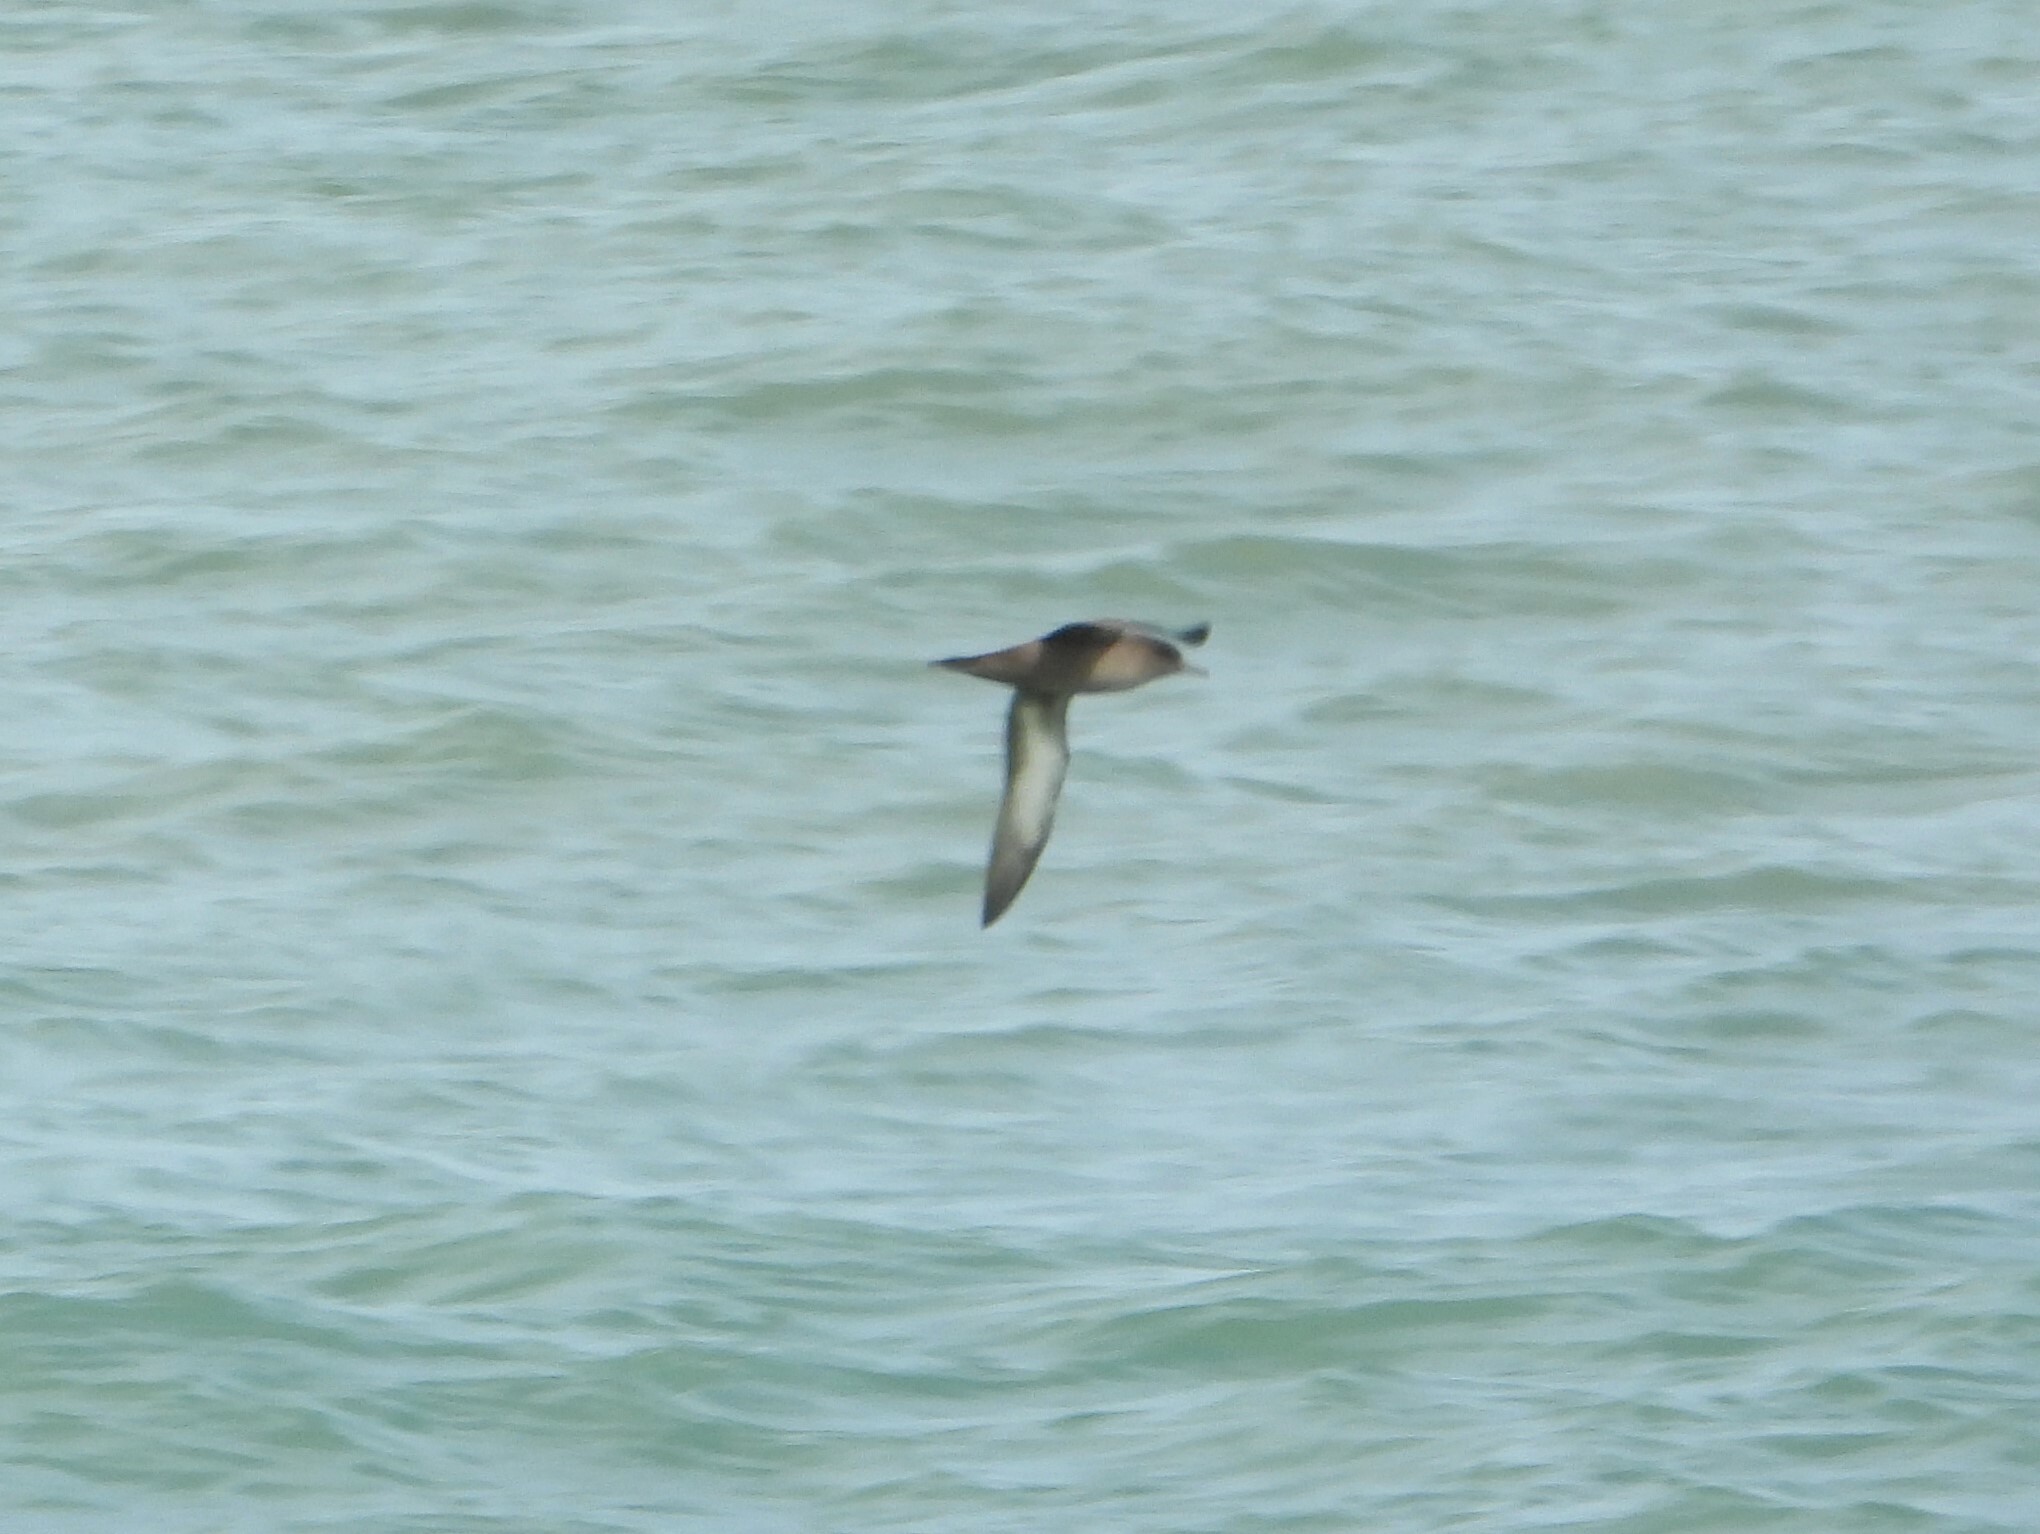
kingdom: Animalia
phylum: Chordata
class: Aves
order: Procellariiformes
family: Procellariidae
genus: Puffinus
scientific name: Puffinus griseus
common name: Sooty shearwater
